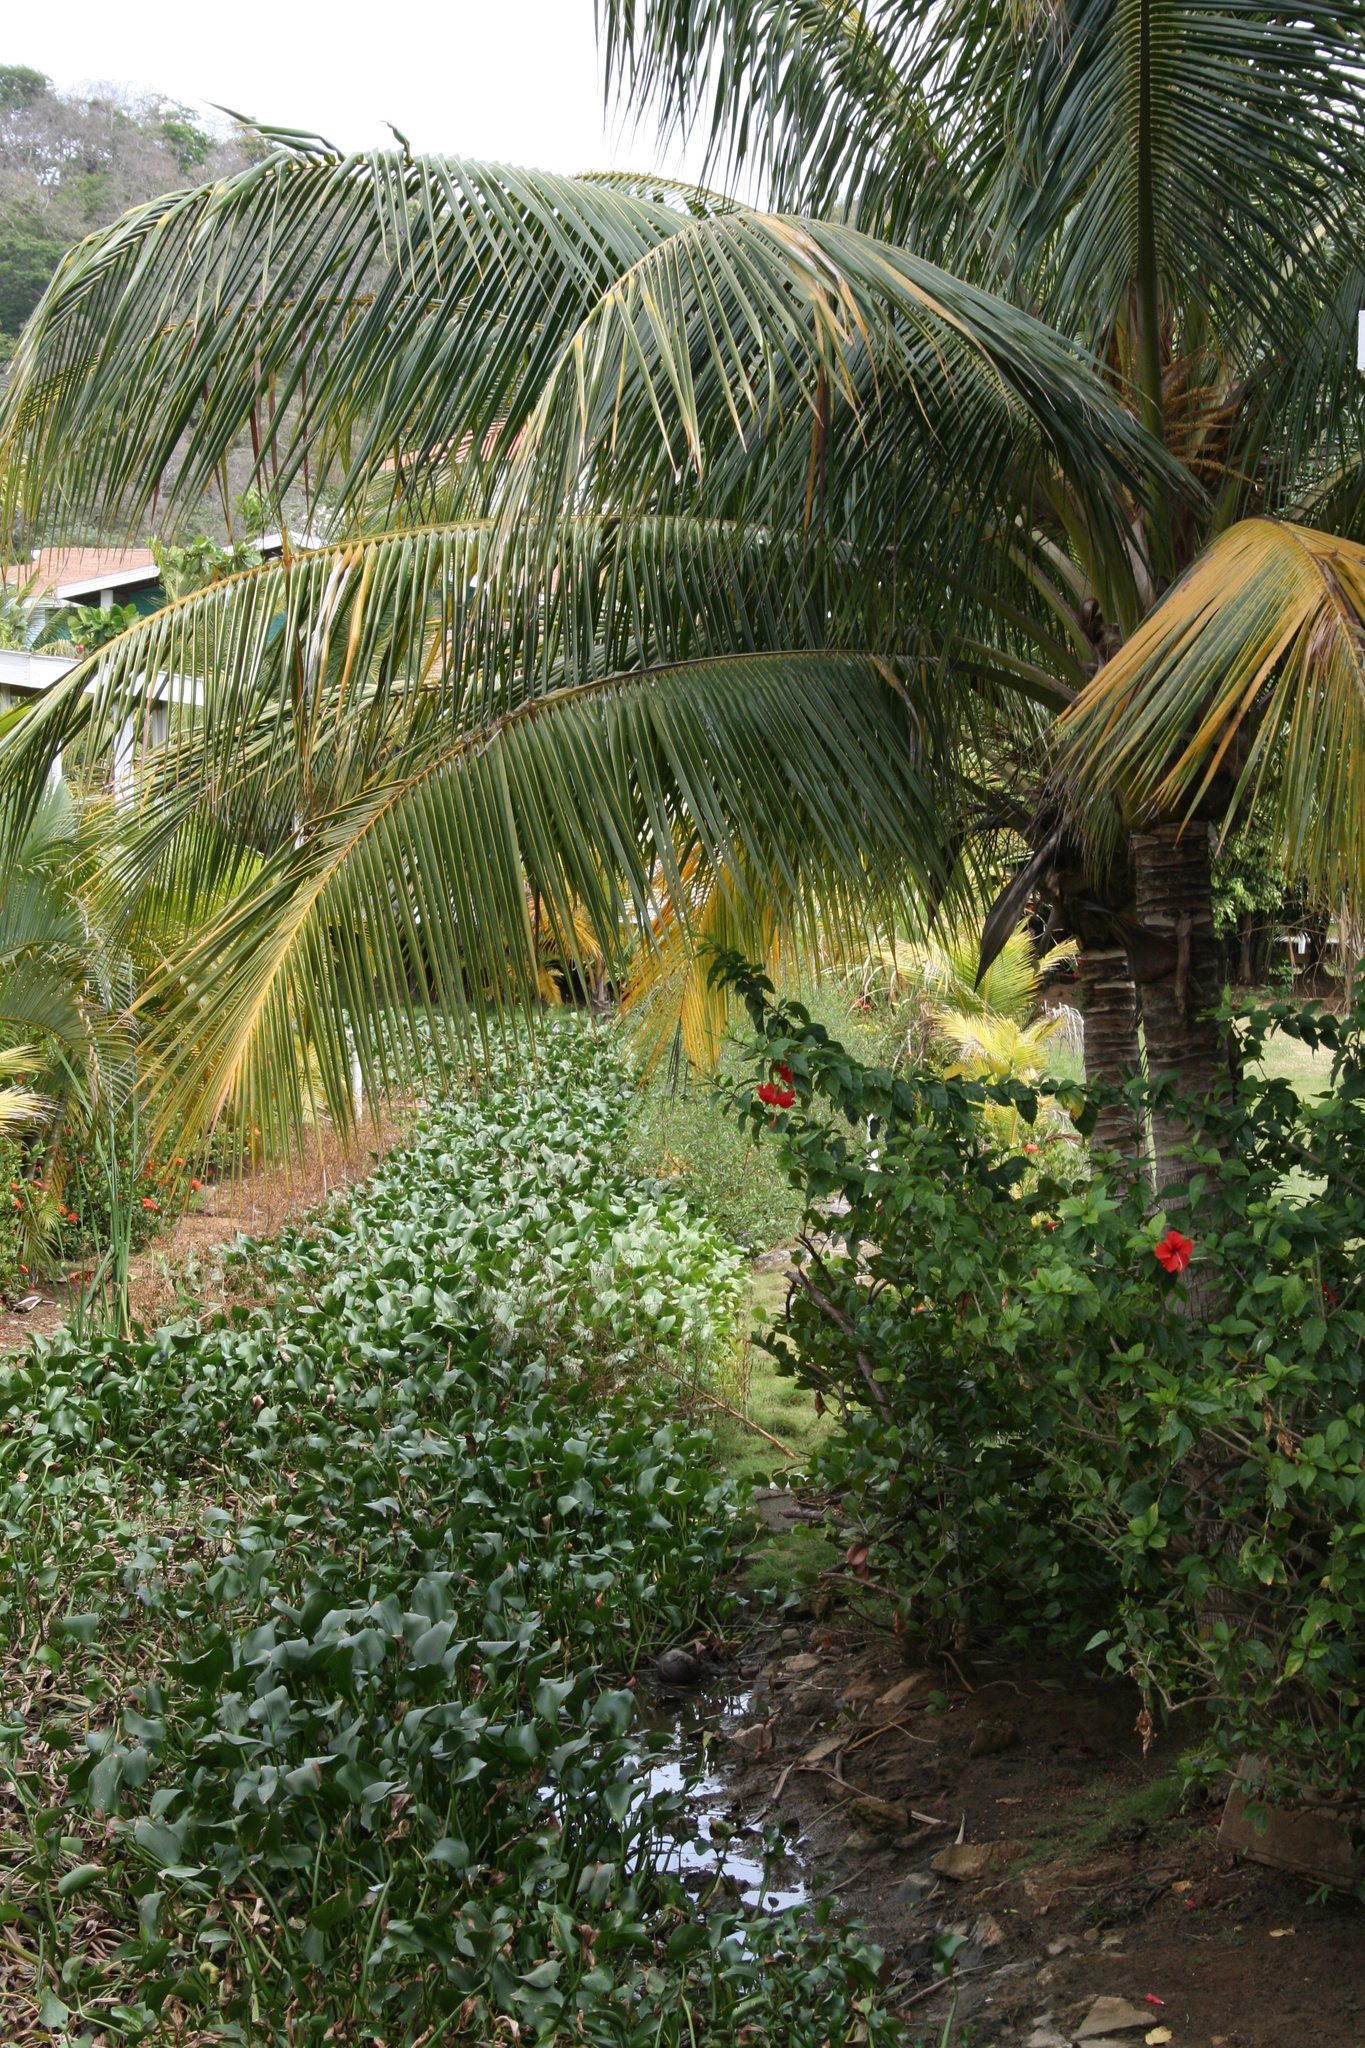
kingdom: Plantae
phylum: Tracheophyta
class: Liliopsida
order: Commelinales
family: Pontederiaceae
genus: Pontederia
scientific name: Pontederia crassipes
